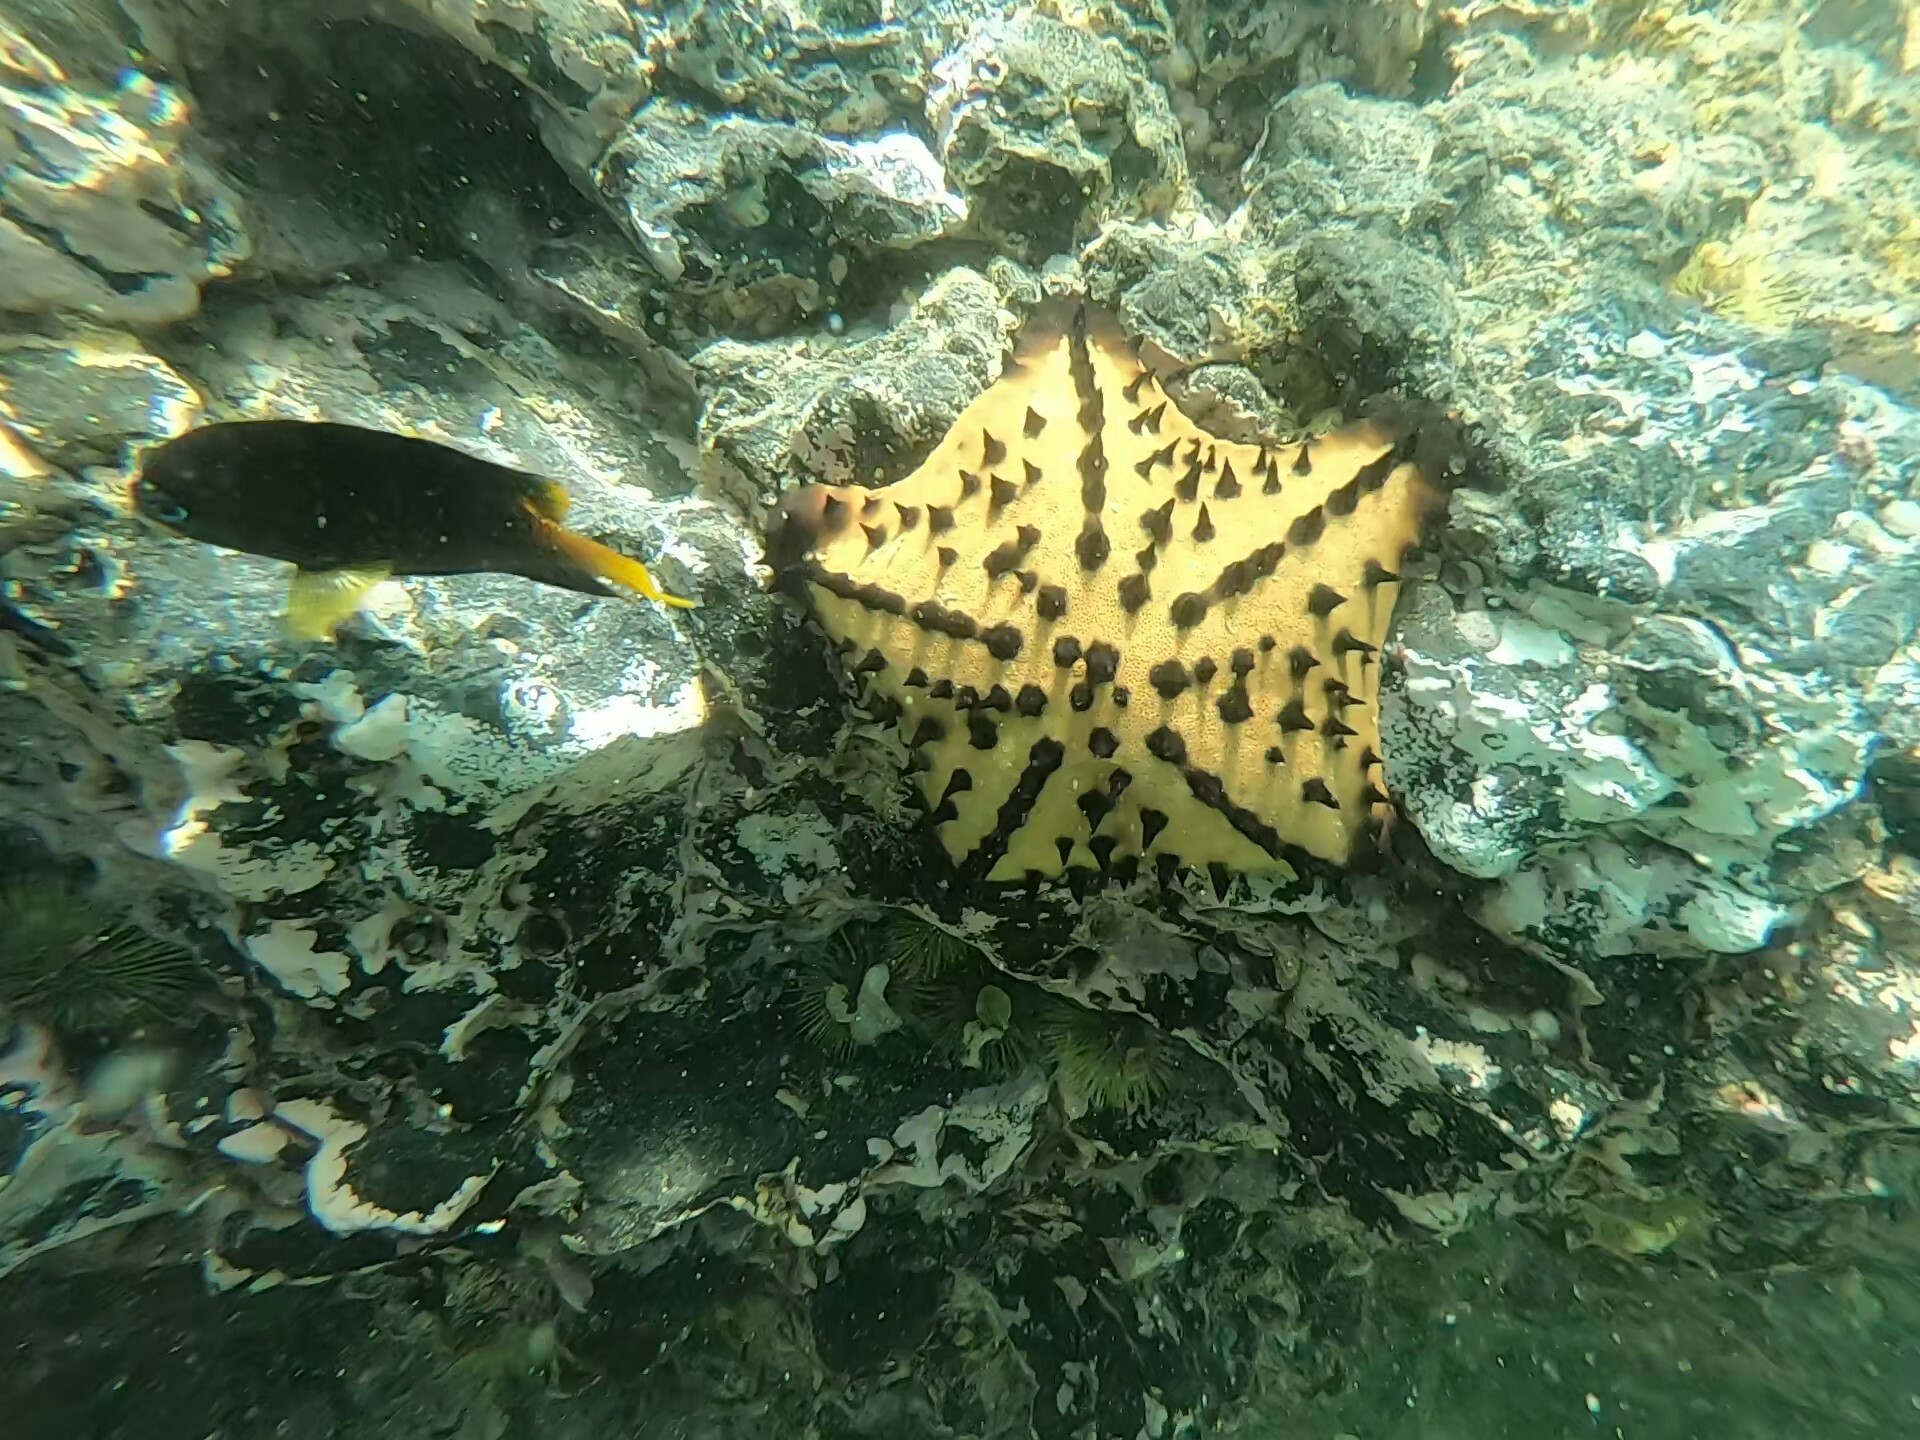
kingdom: Animalia
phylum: Echinodermata
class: Asteroidea
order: Valvatida
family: Oreasteridae
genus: Nidorellia
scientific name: Nidorellia armata
